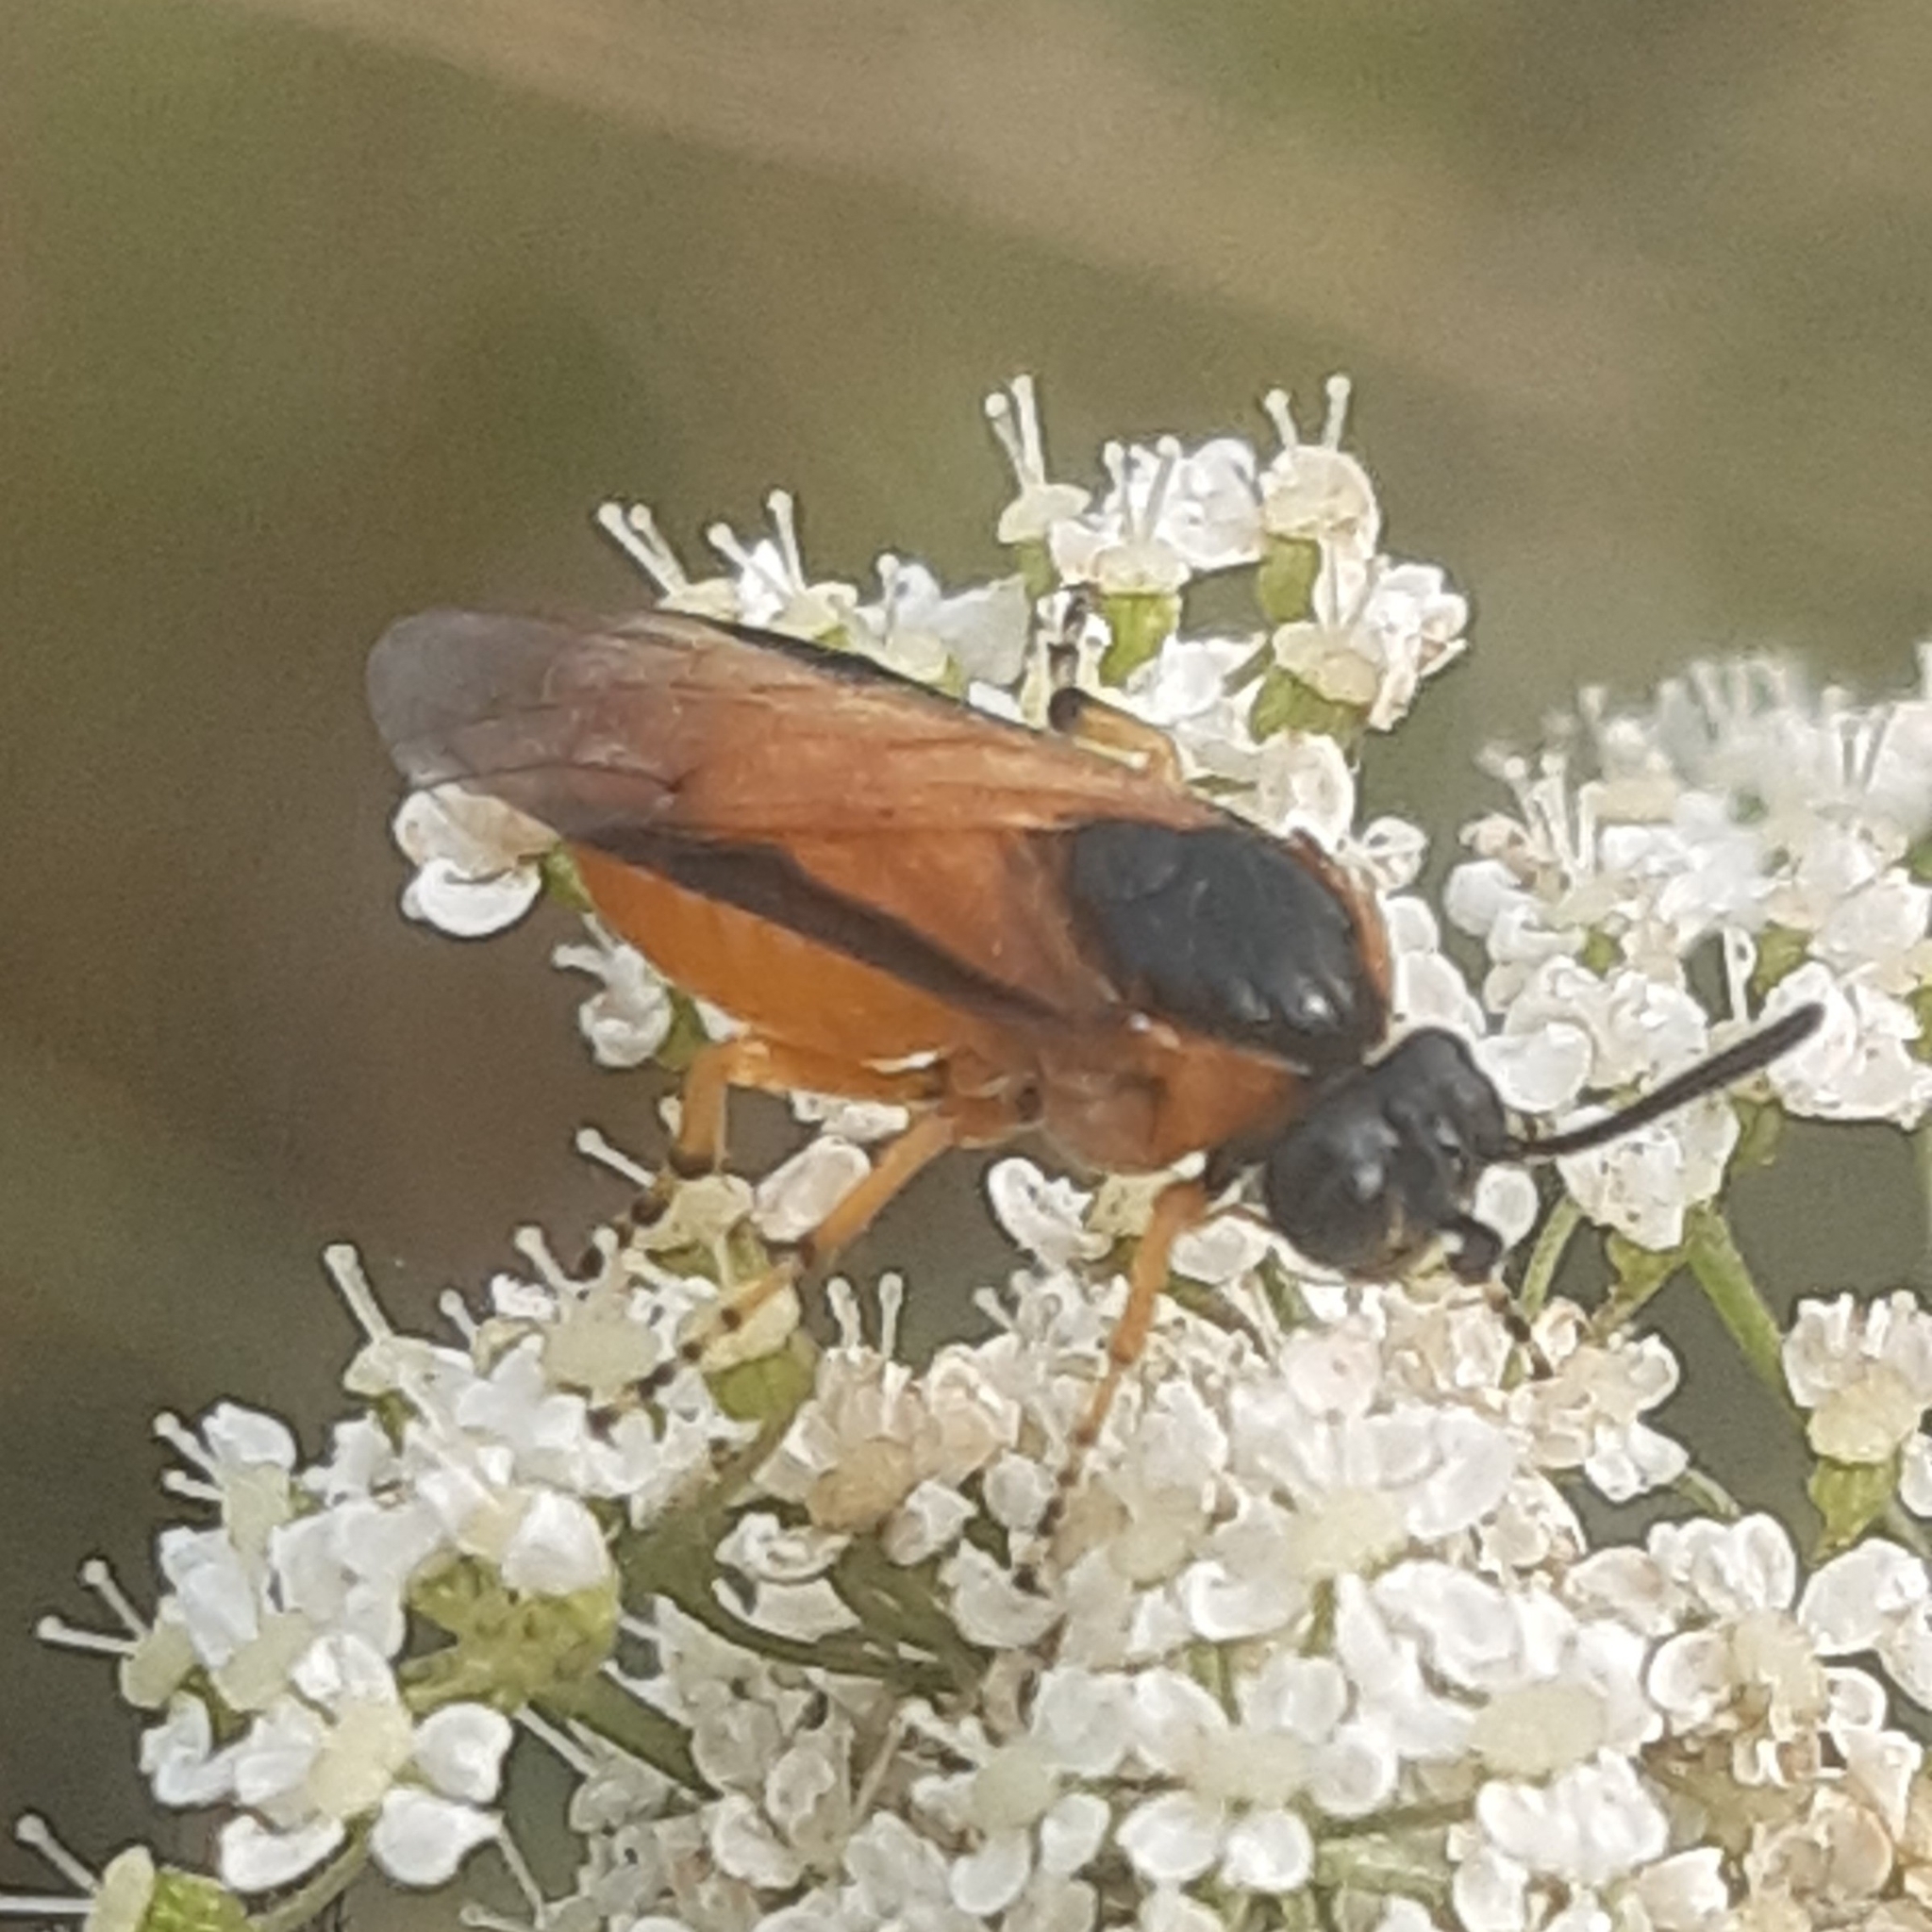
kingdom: Animalia
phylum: Arthropoda
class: Insecta
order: Hymenoptera
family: Argidae
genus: Arge
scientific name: Arge ochropus
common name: Argid sawfly
